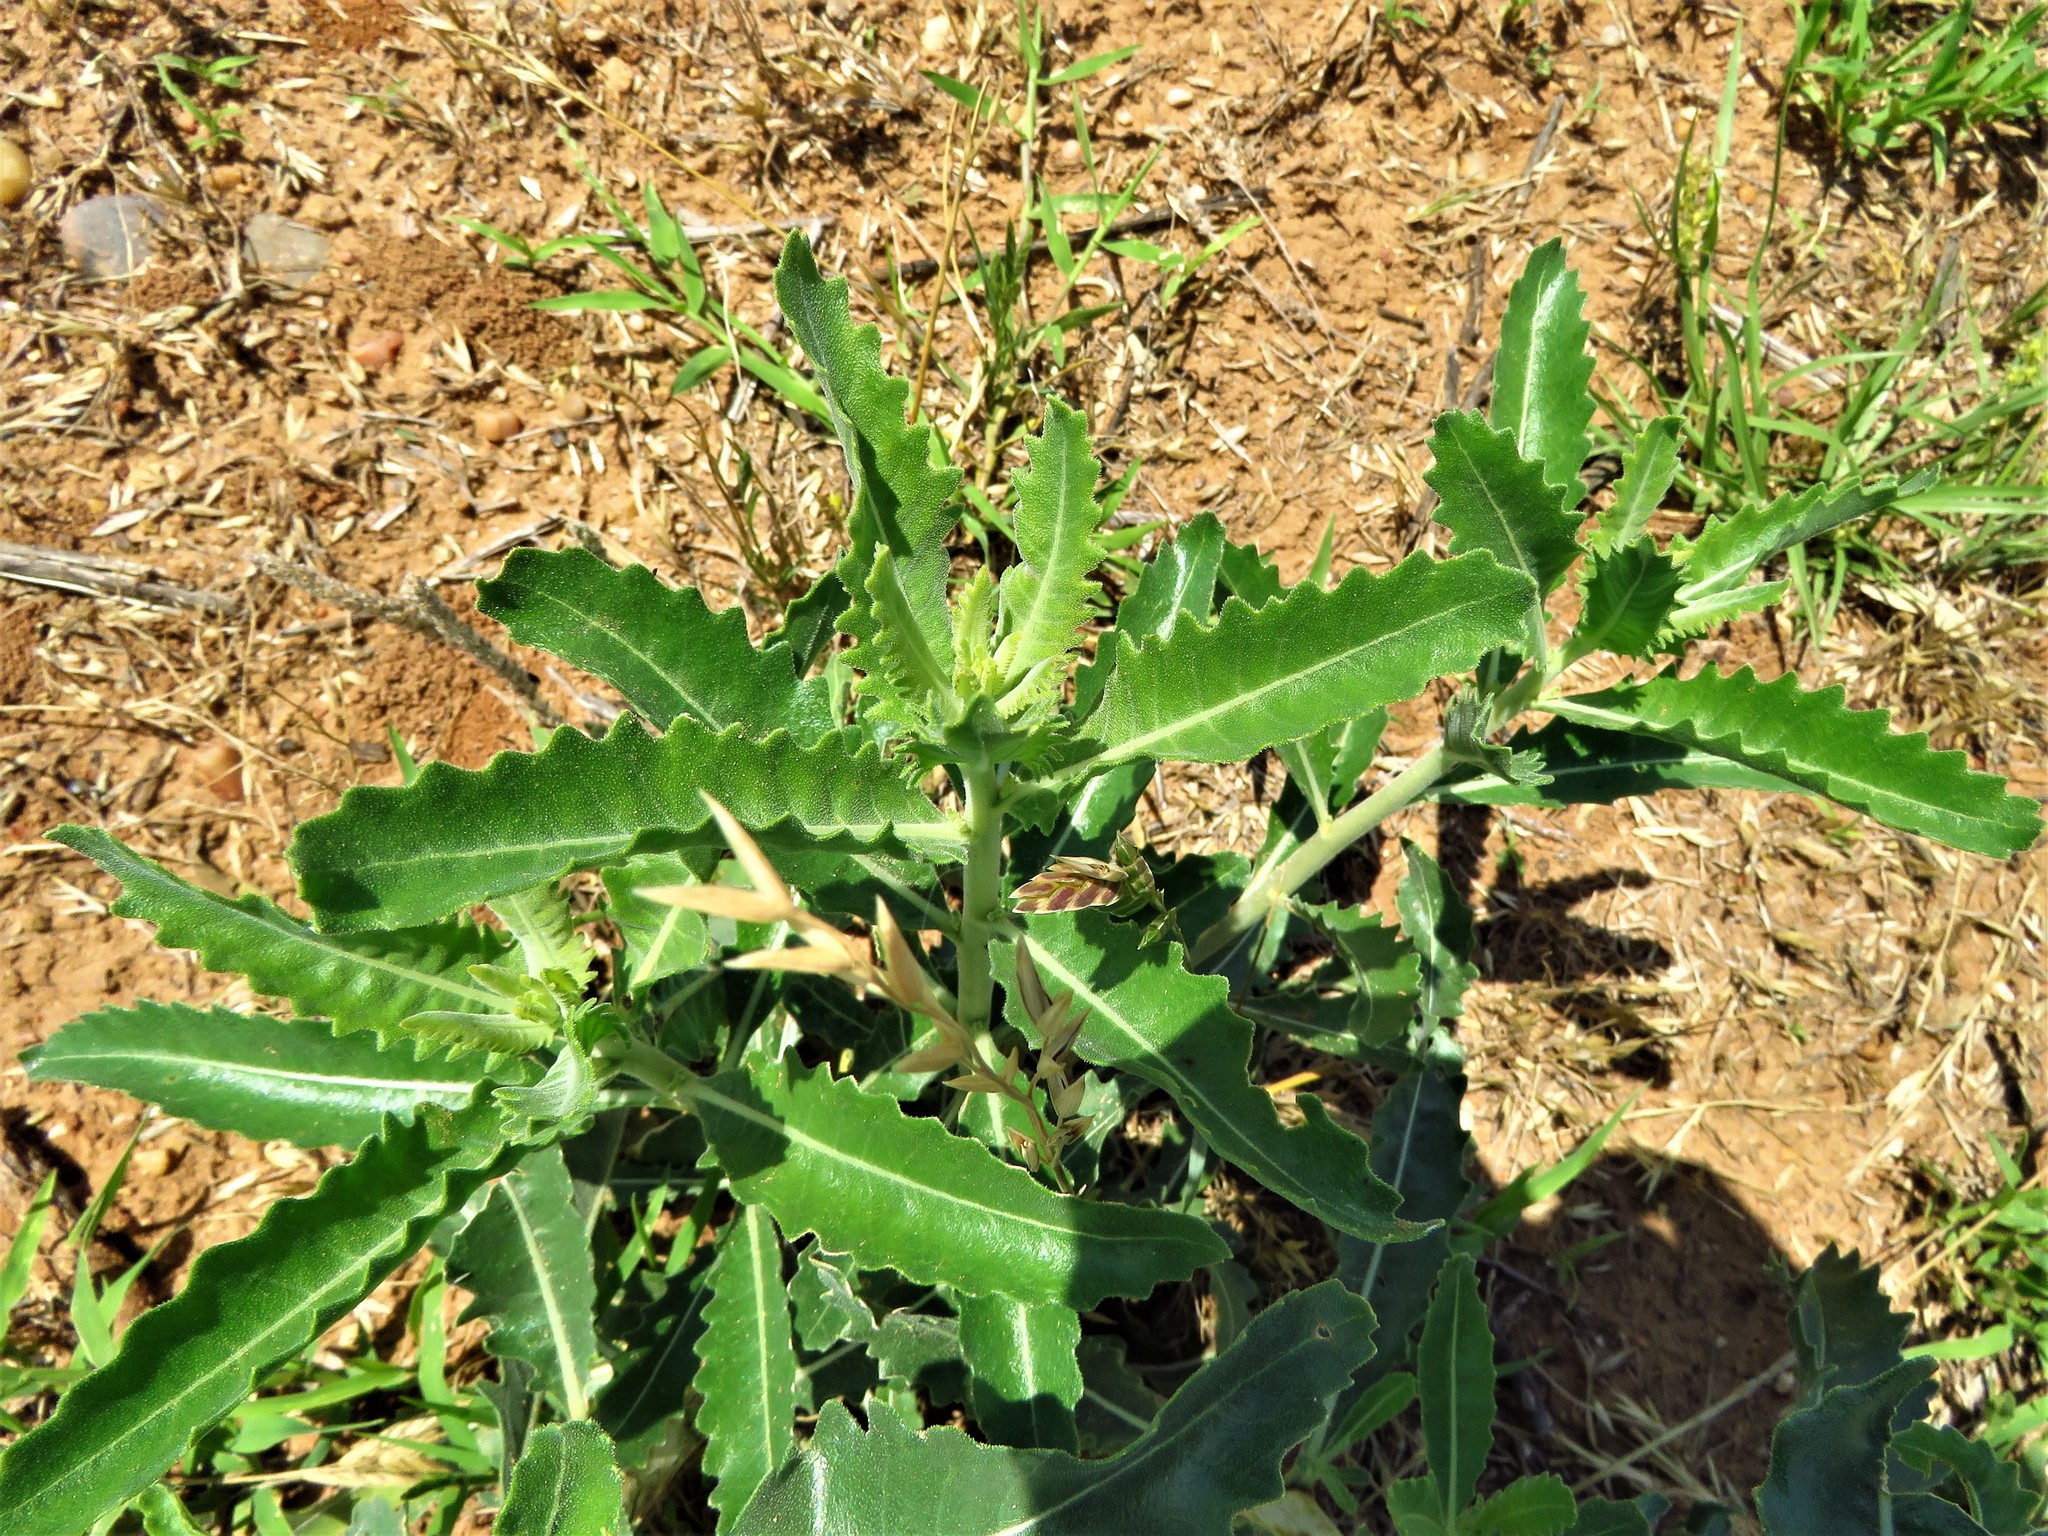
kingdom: Plantae
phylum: Tracheophyta
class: Magnoliopsida
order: Cornales
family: Loasaceae
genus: Mentzelia
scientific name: Mentzelia nuda
